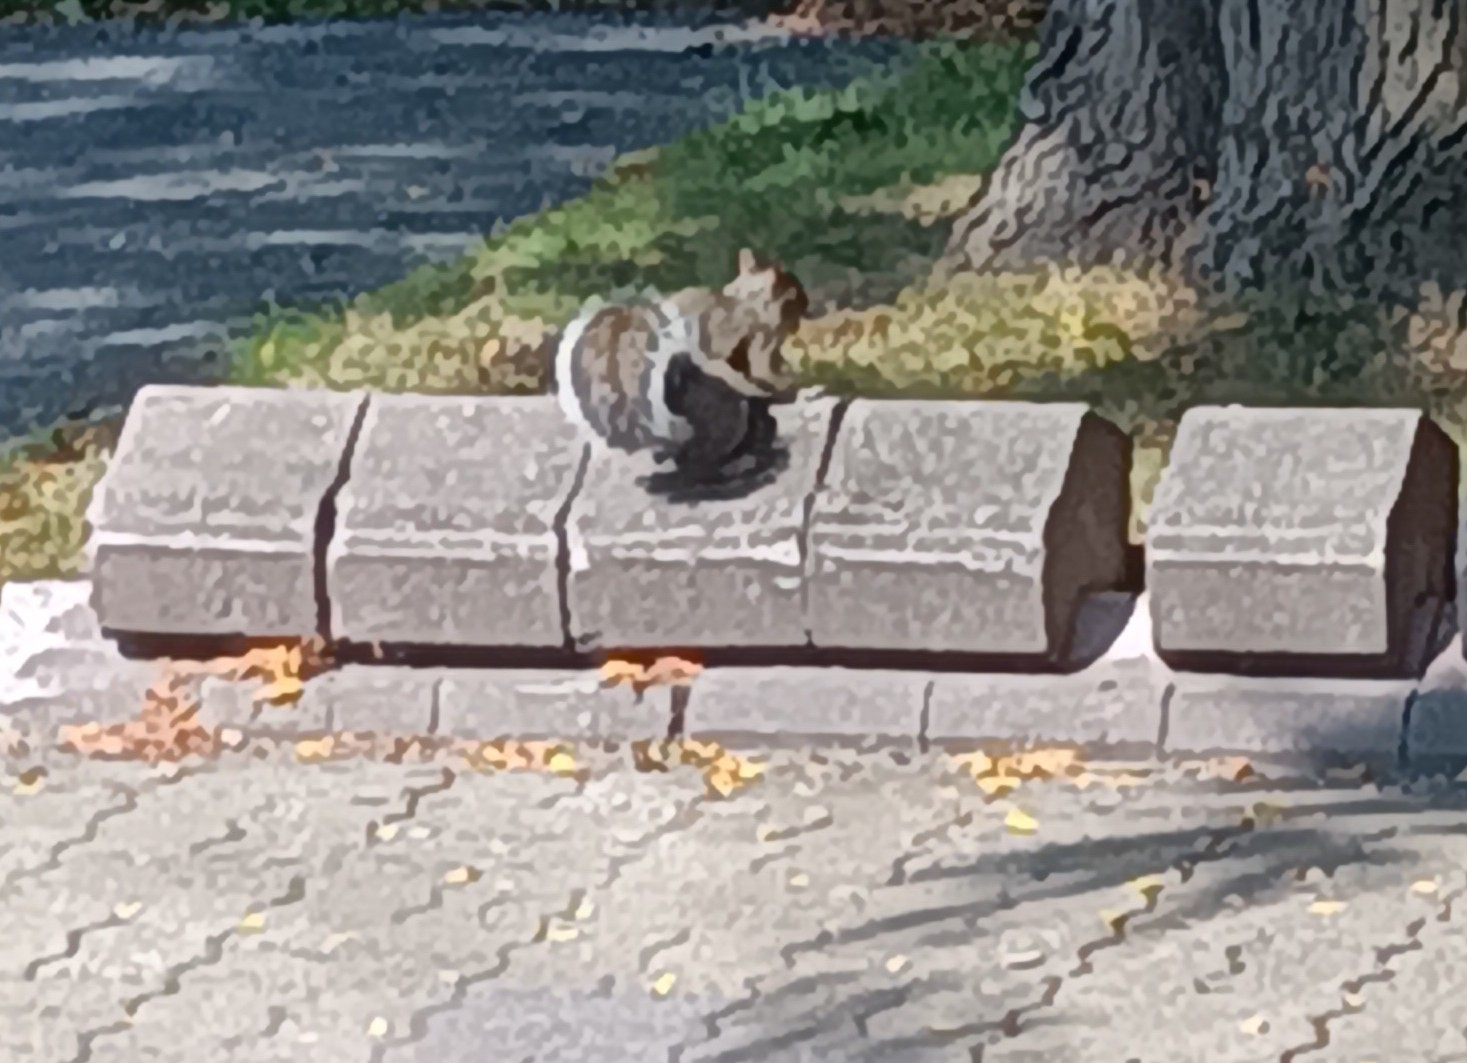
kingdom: Animalia
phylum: Chordata
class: Mammalia
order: Rodentia
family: Sciuridae
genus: Sciurus
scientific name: Sciurus carolinensis
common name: Eastern gray squirrel
